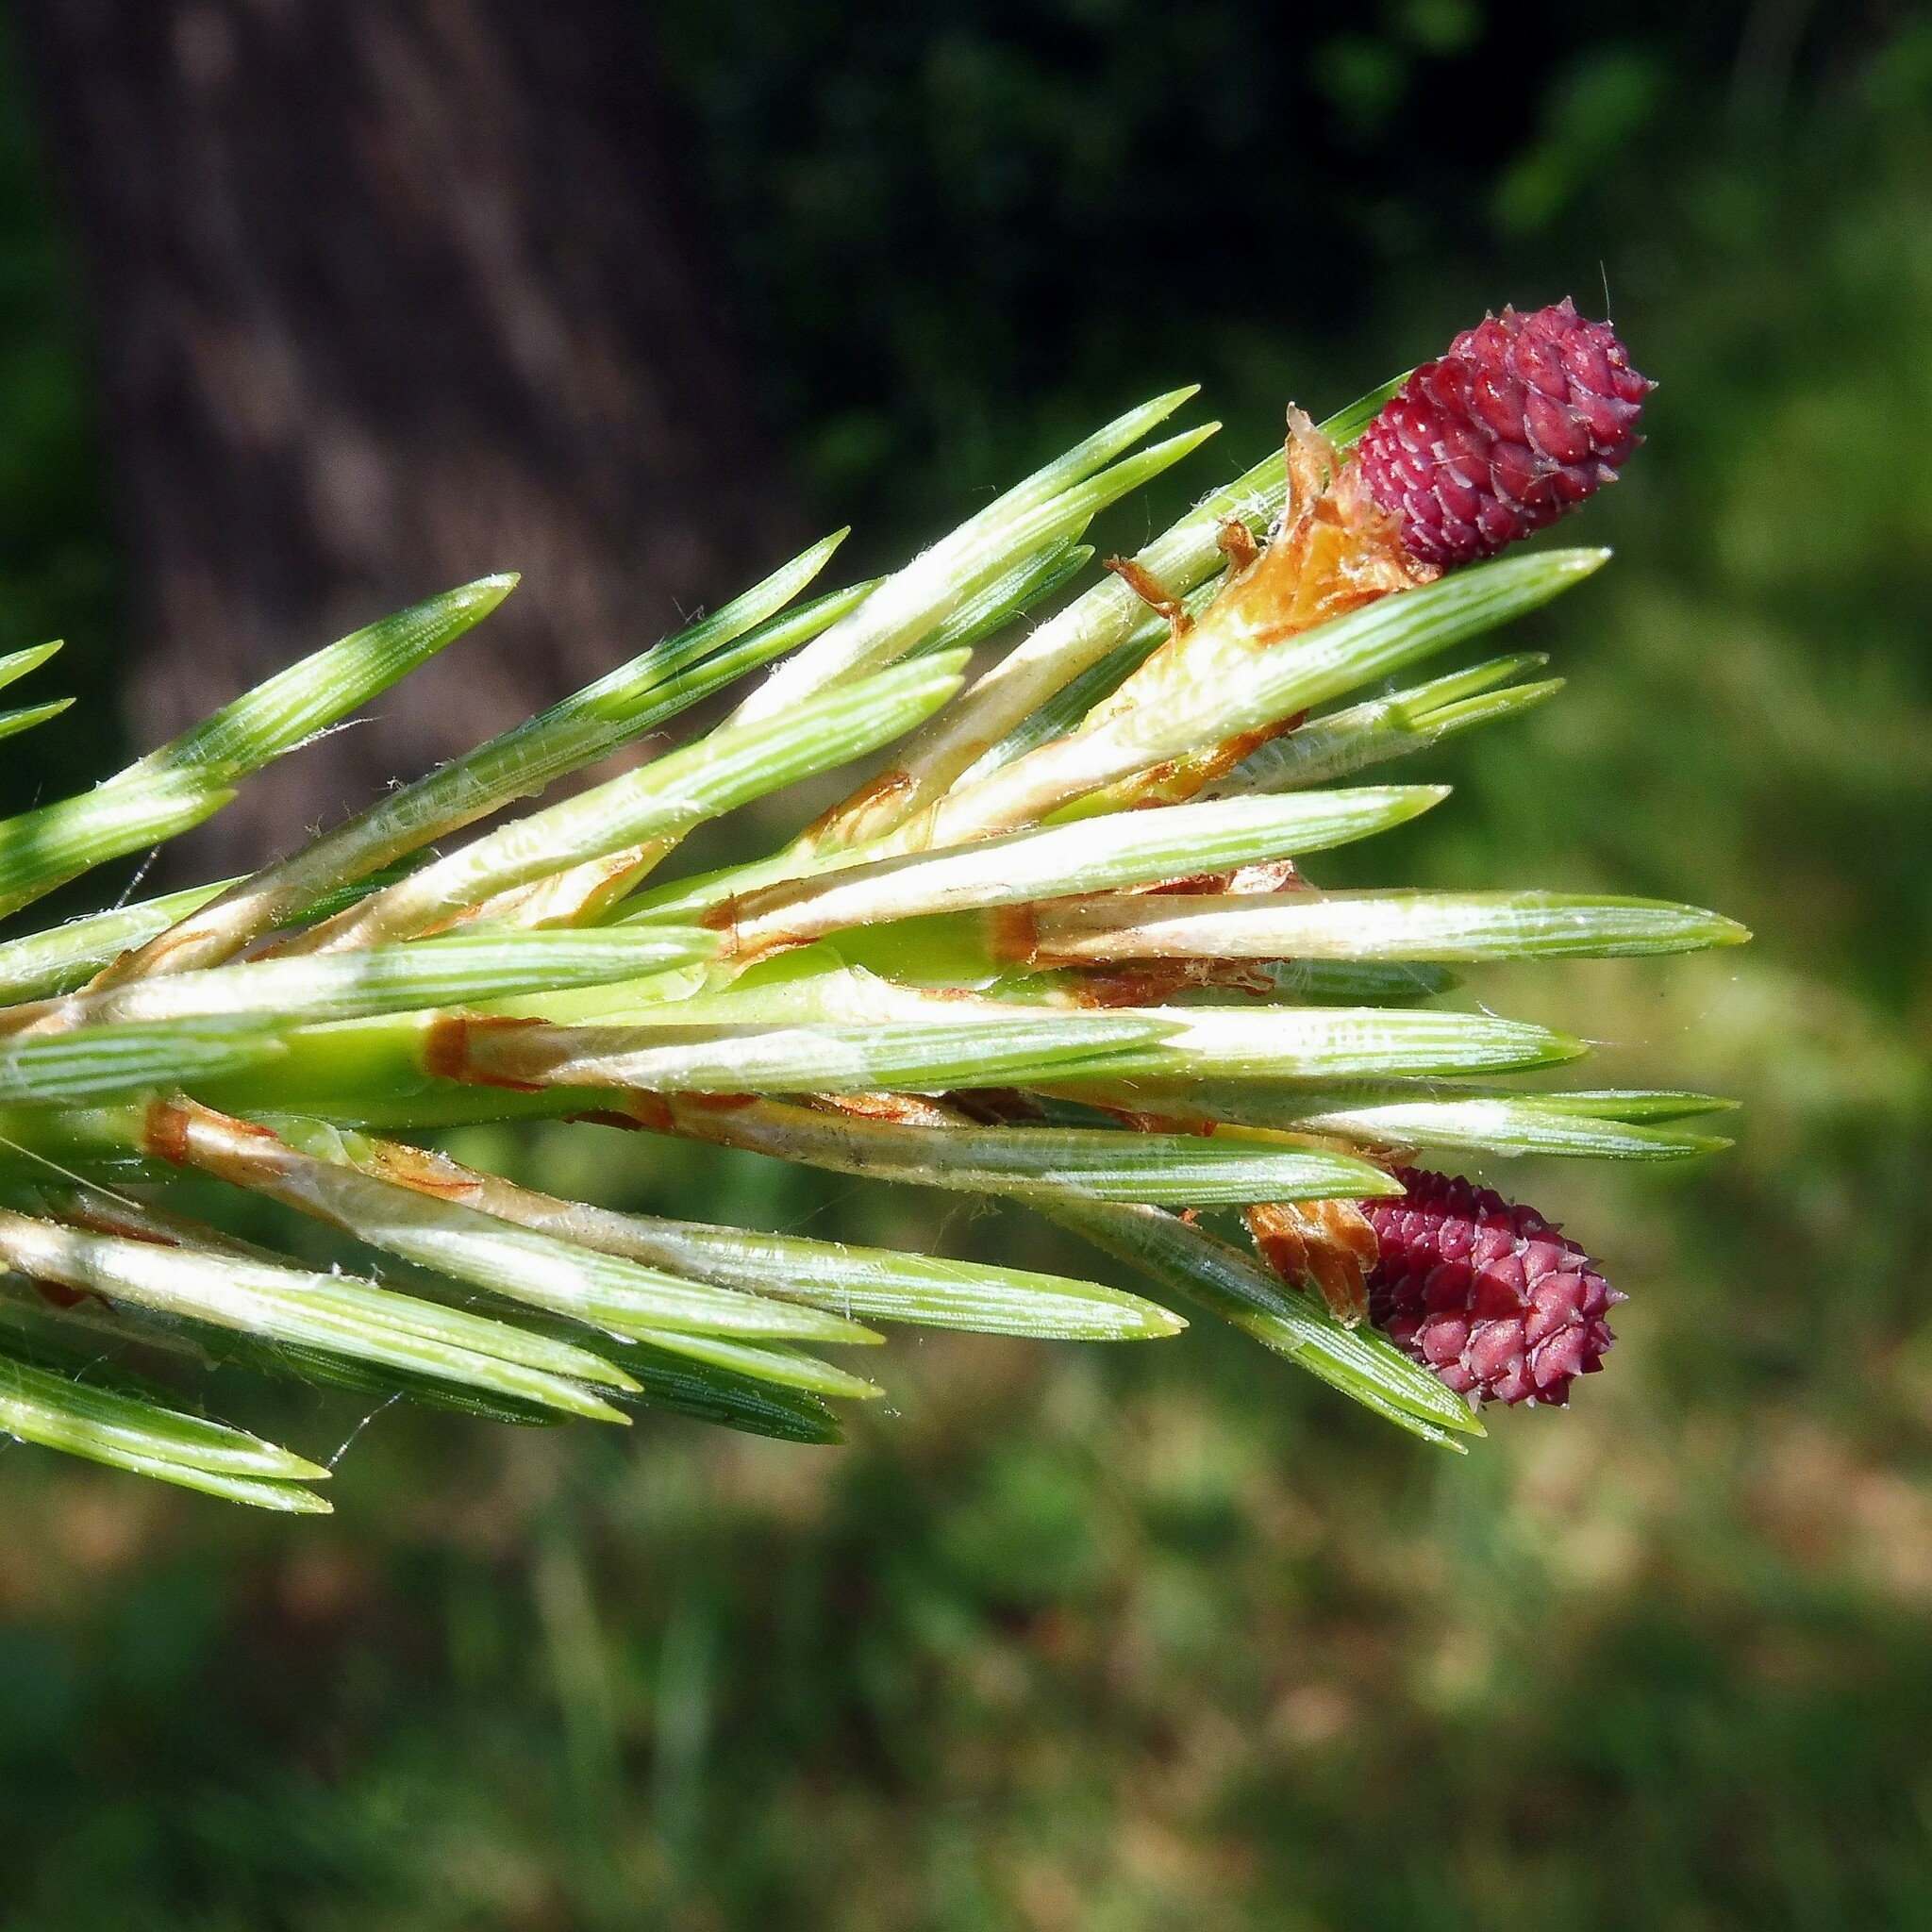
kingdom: Plantae
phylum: Tracheophyta
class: Pinopsida
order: Pinales
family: Pinaceae
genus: Pinus
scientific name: Pinus sylvestris
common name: Scots pine
